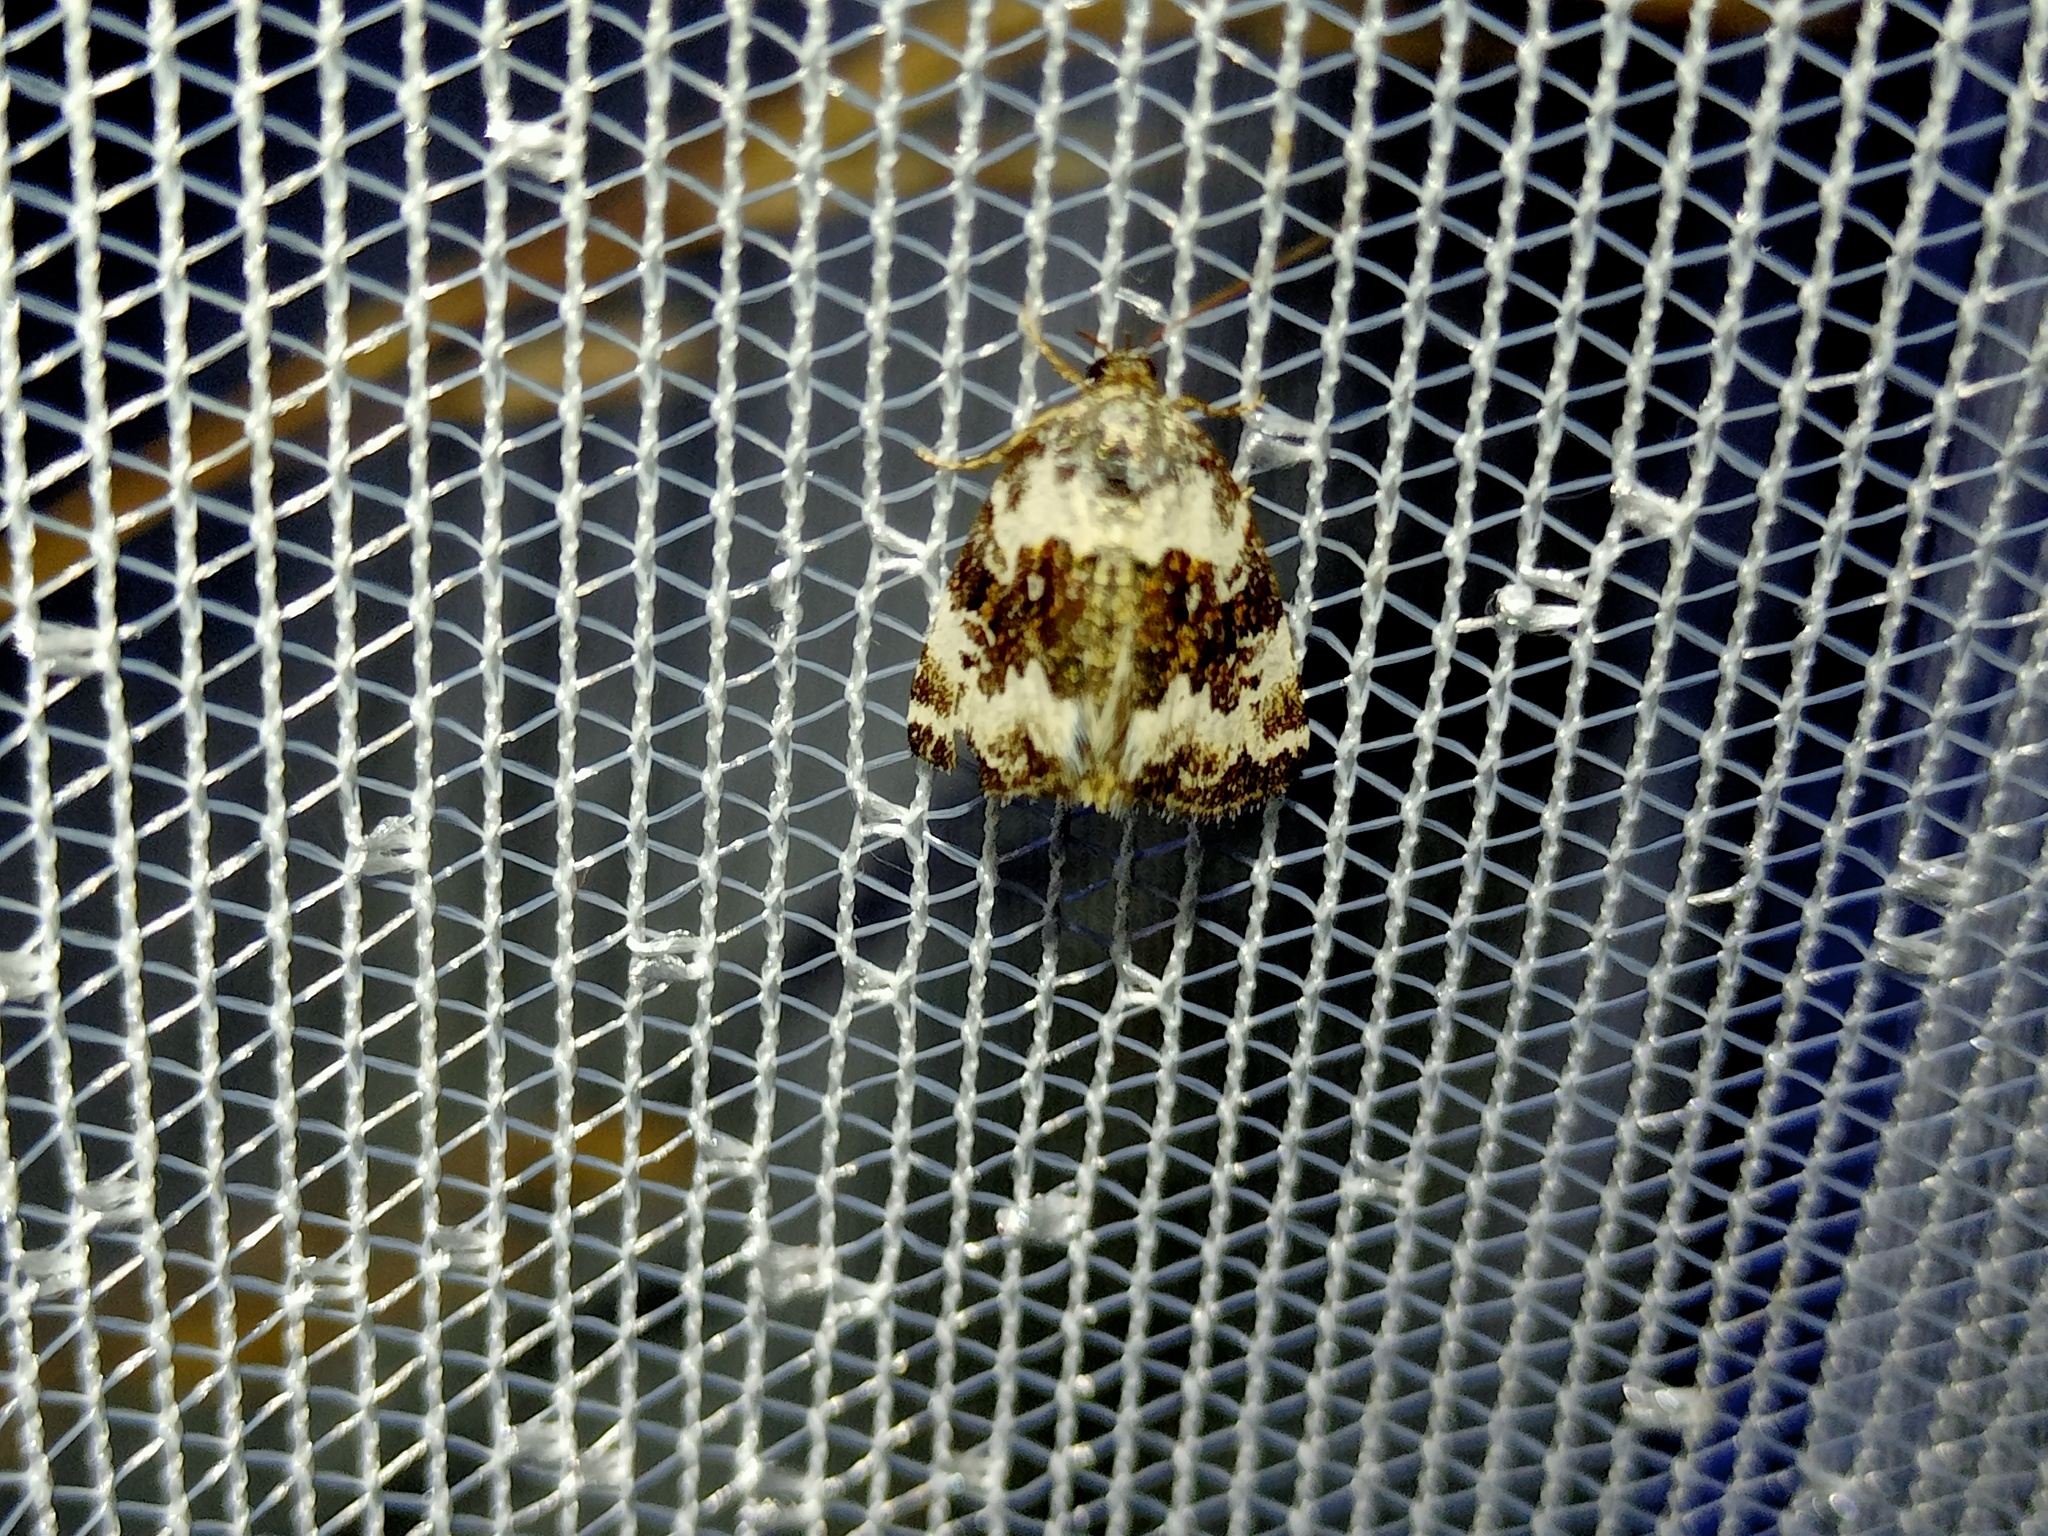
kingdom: Animalia
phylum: Arthropoda
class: Insecta
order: Lepidoptera
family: Noctuidae
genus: Deltote
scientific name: Deltote deceptoria
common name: Pretty marbled
